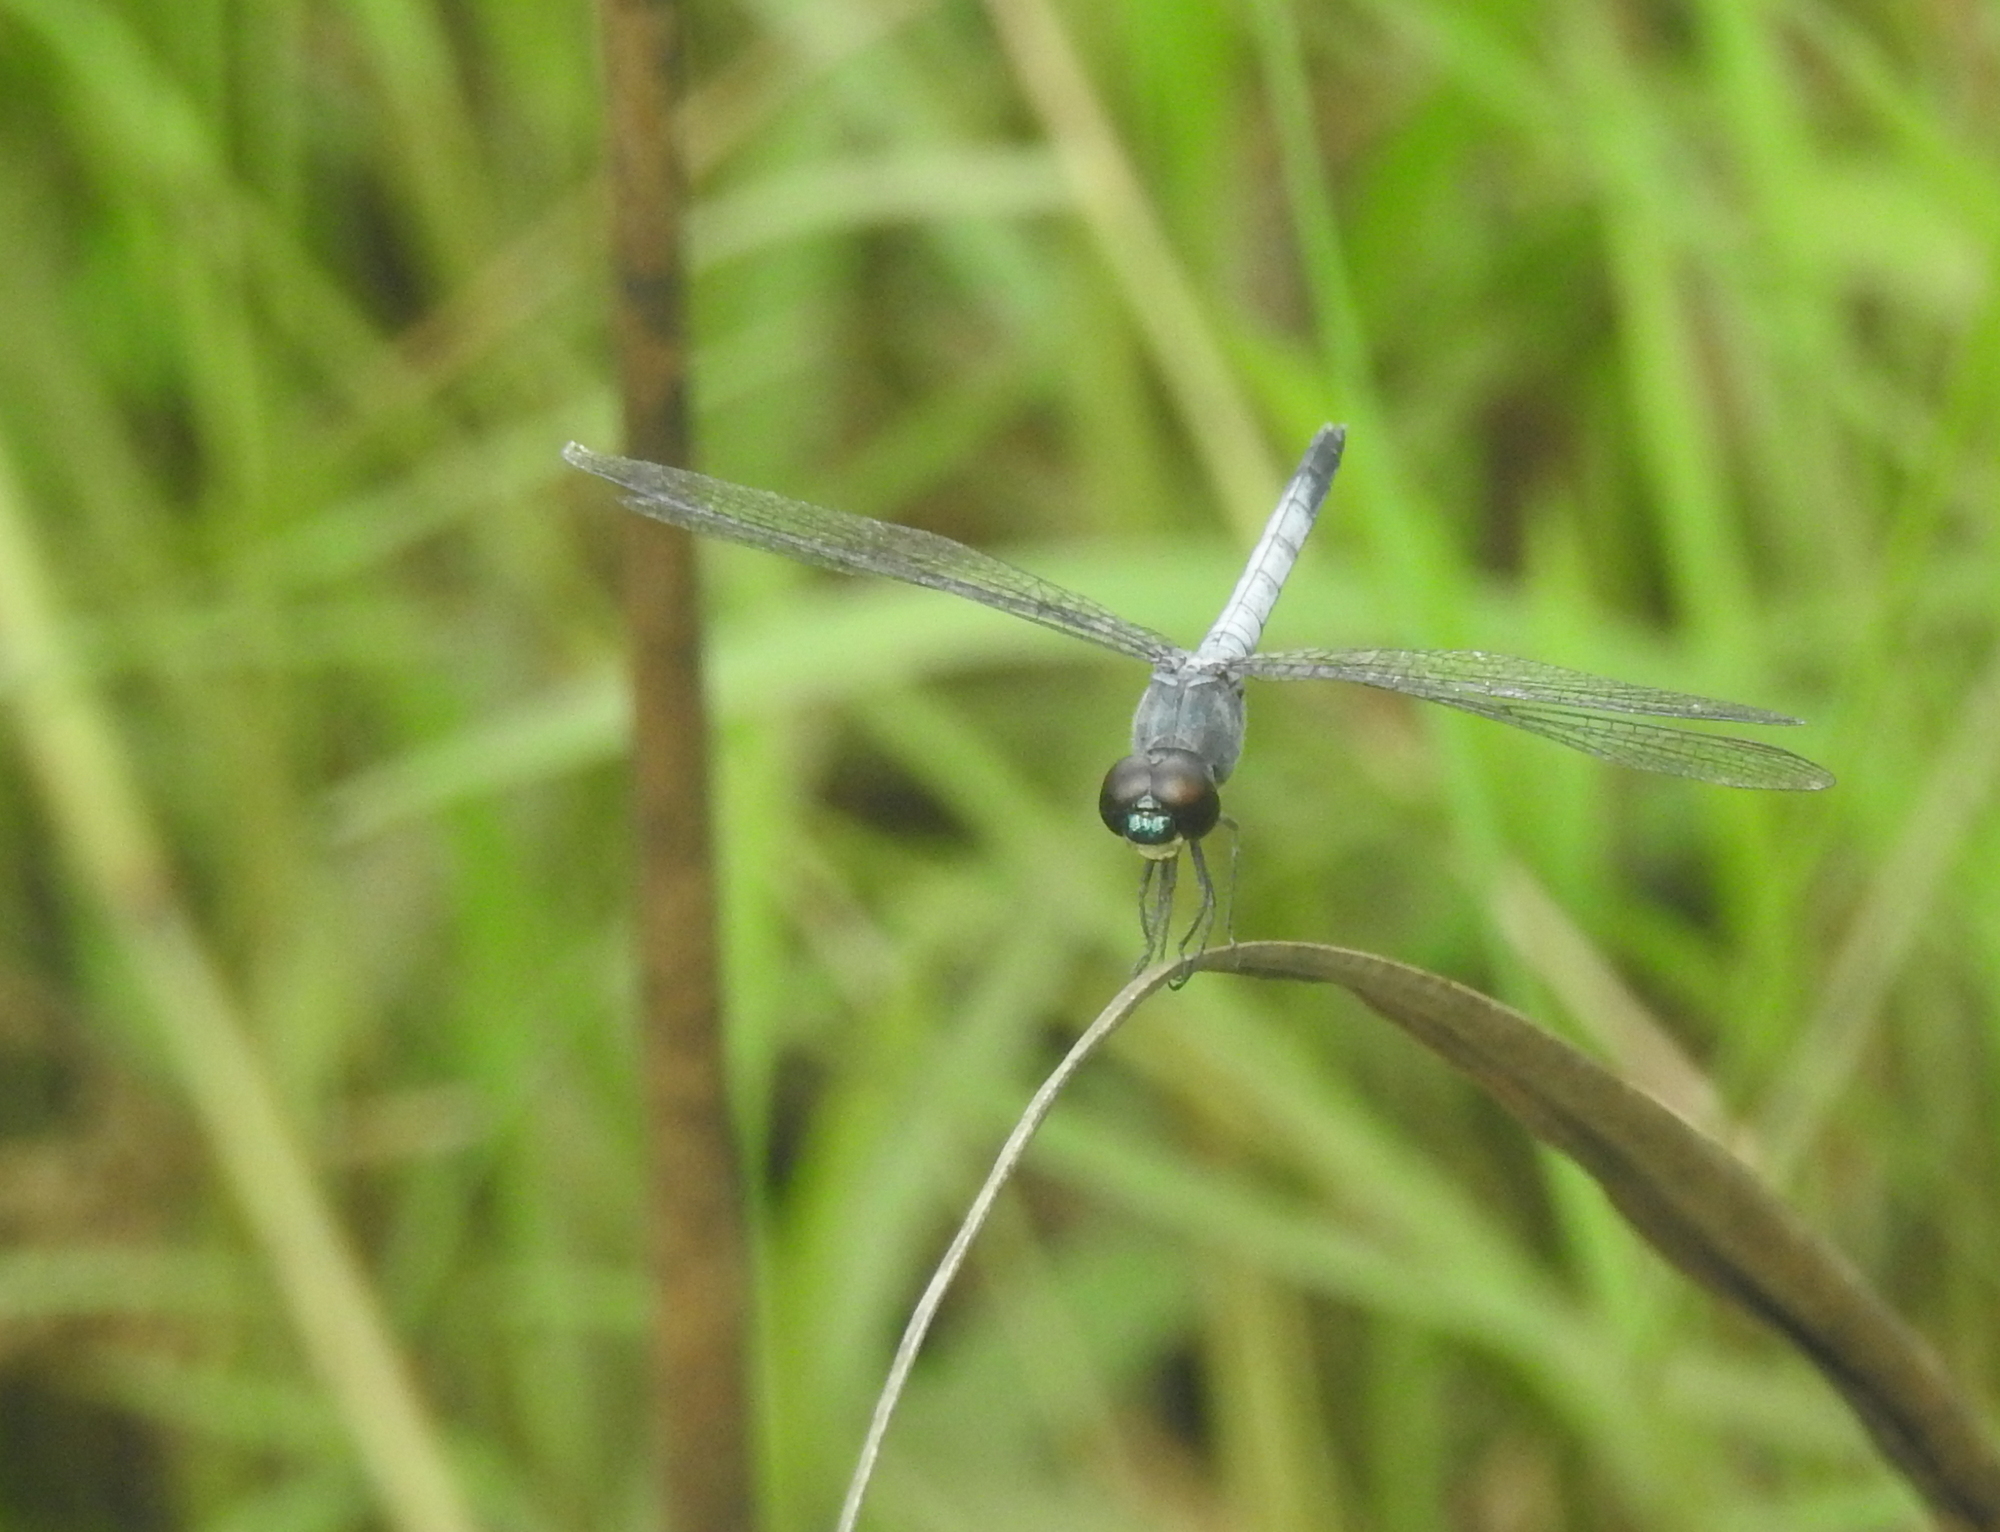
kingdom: Animalia
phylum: Arthropoda
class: Insecta
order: Odonata
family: Libellulidae
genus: Brachydiplax
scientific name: Brachydiplax sobrina
